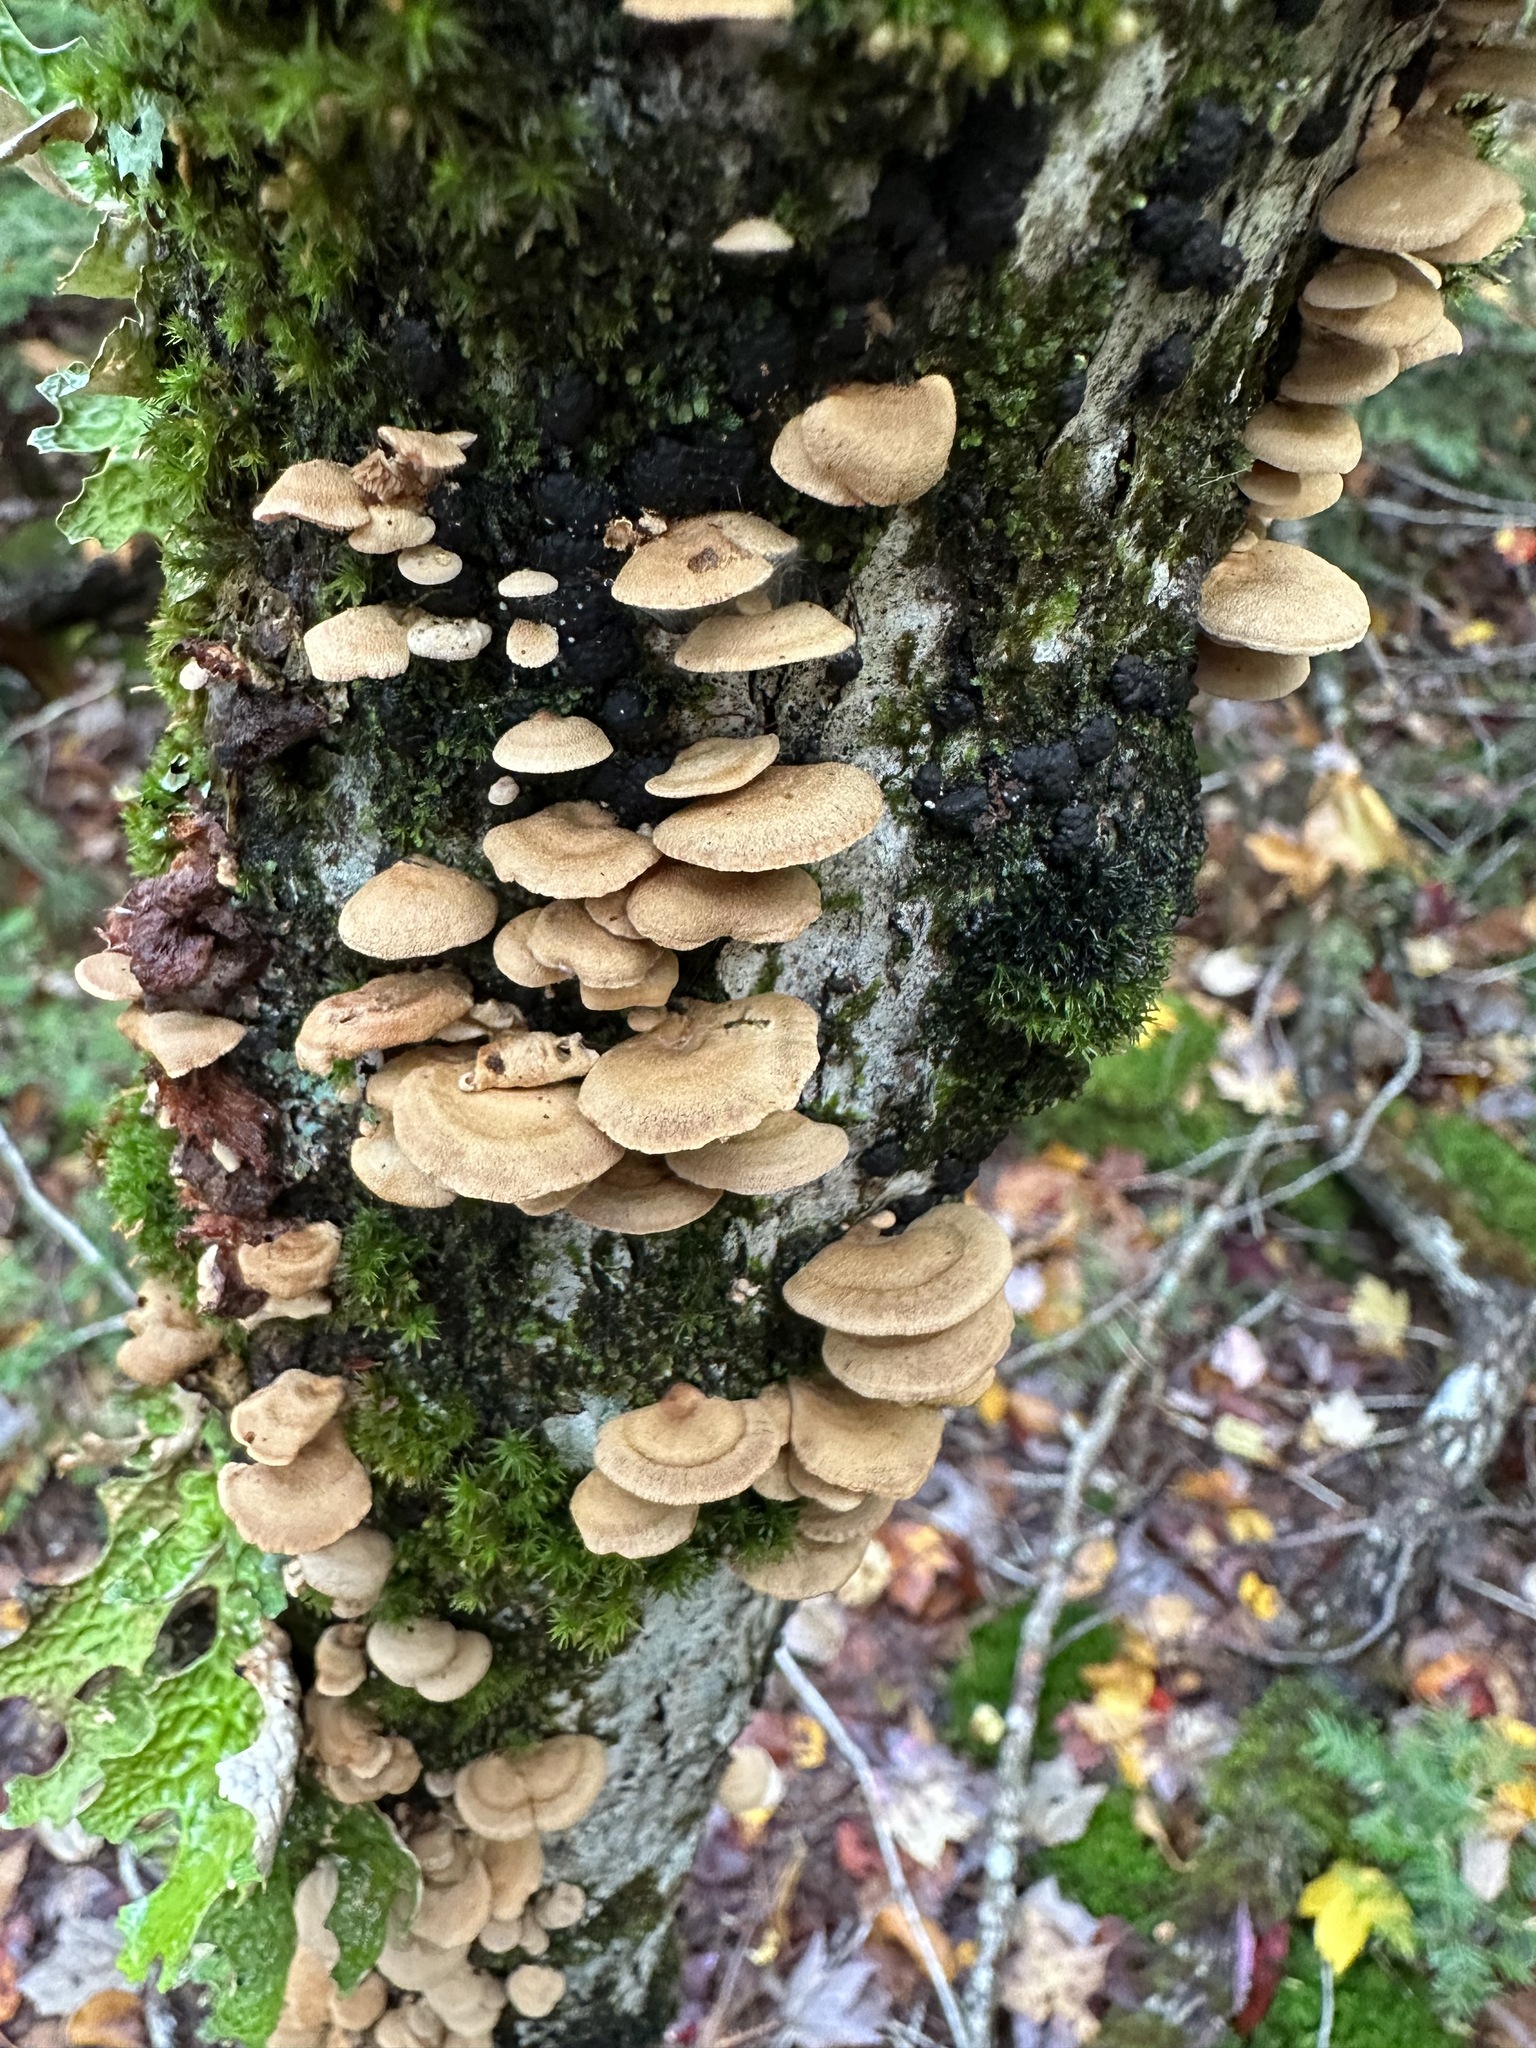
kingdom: Fungi
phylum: Basidiomycota
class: Agaricomycetes
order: Agaricales
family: Mycenaceae
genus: Panellus
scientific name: Panellus stipticus
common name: Bitter oysterling
